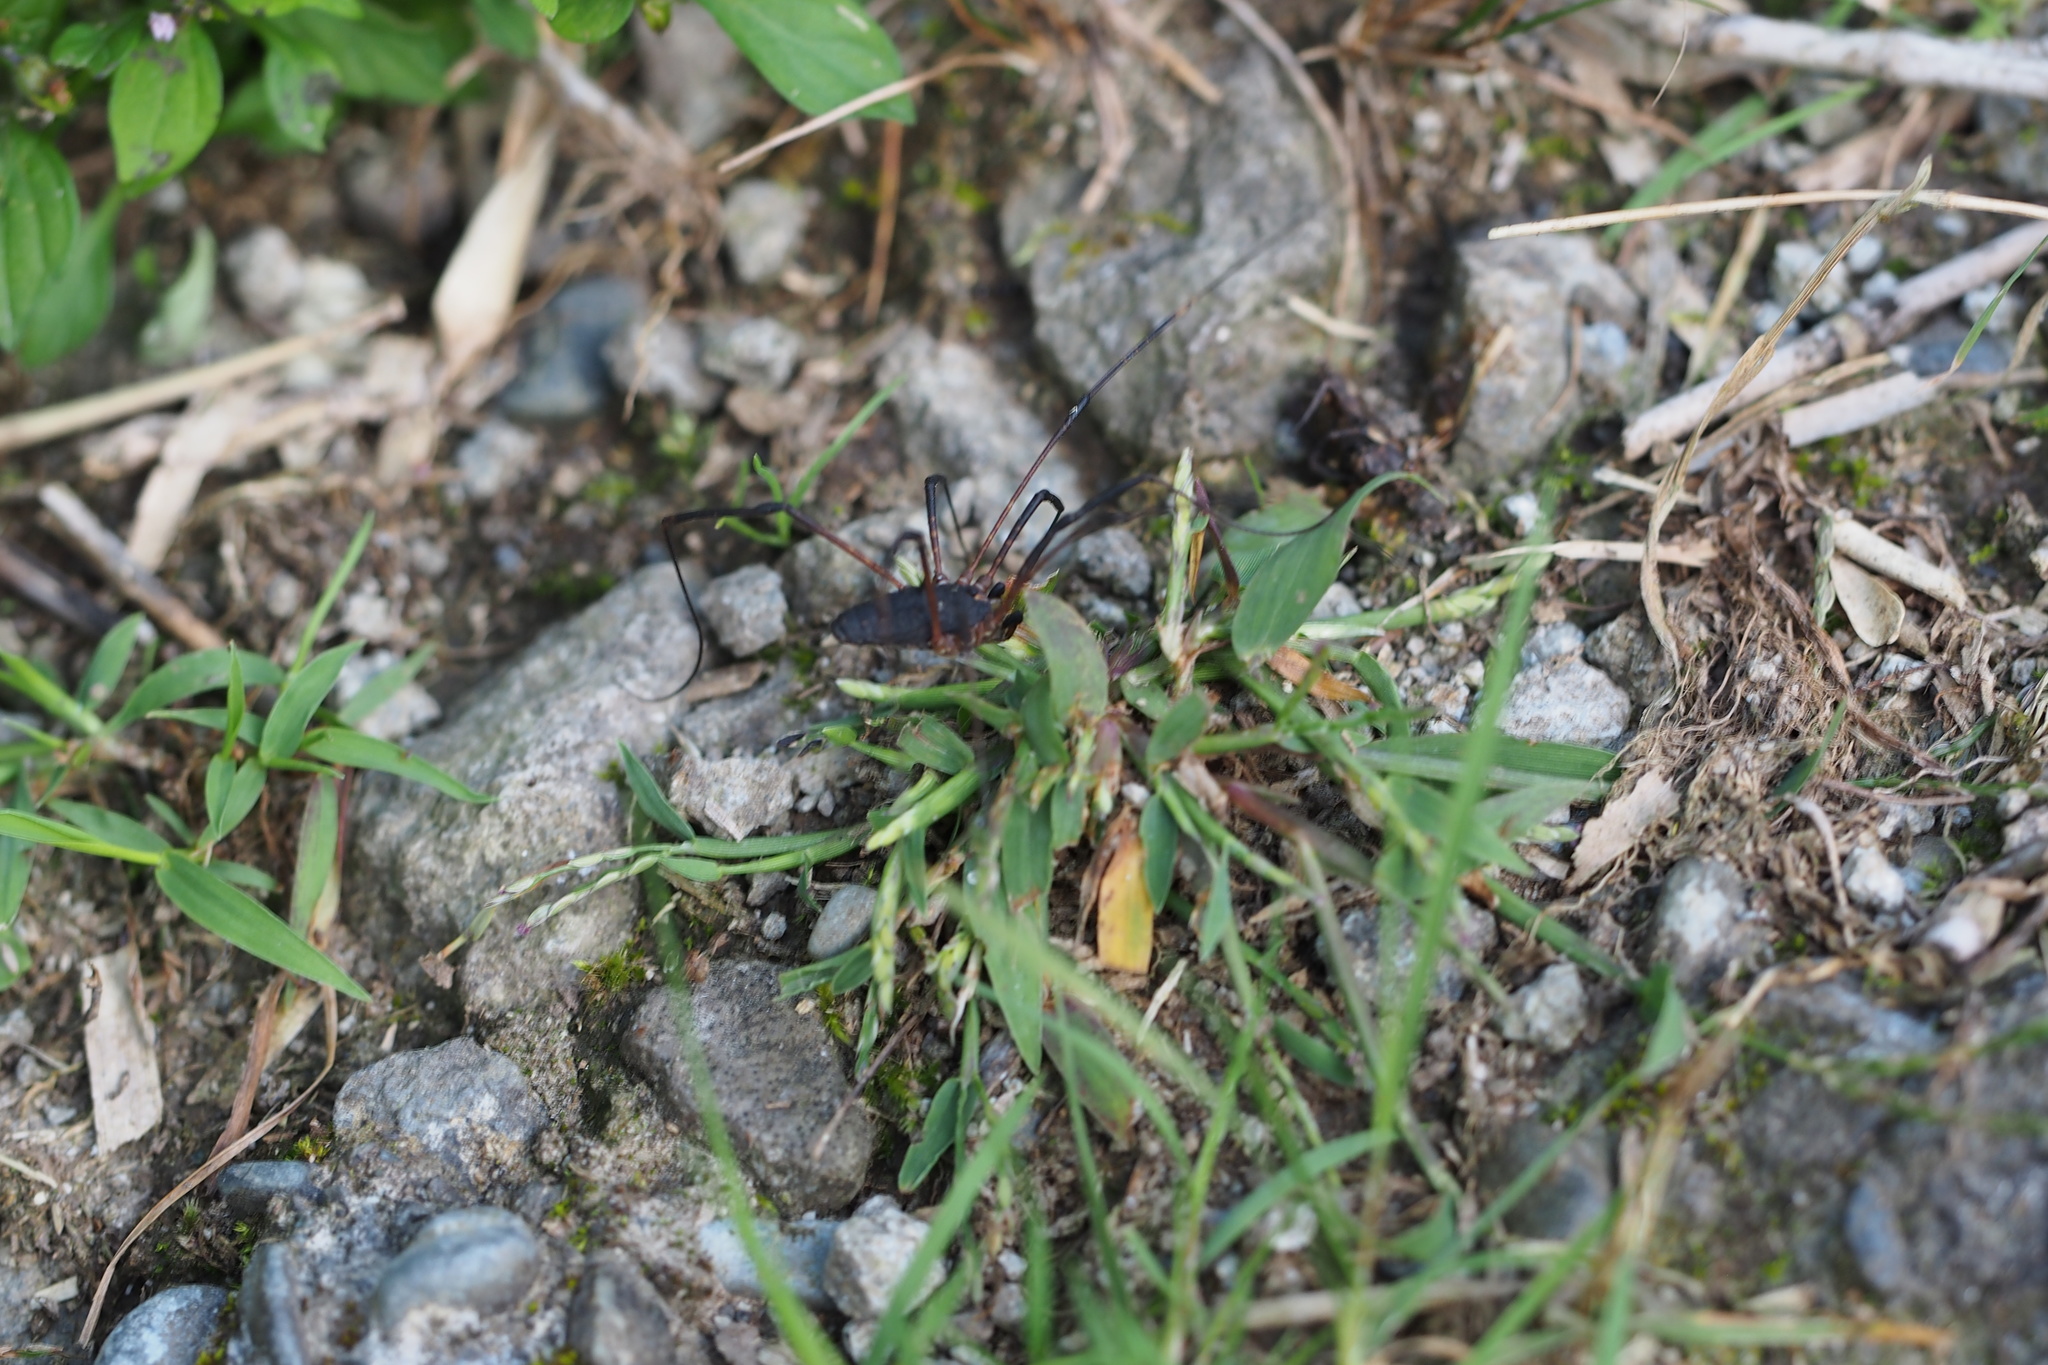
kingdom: Animalia
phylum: Arthropoda
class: Arachnida
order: Opiliones
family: Sclerosomatidae
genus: Thunbergia
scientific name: Thunbergia grandis
